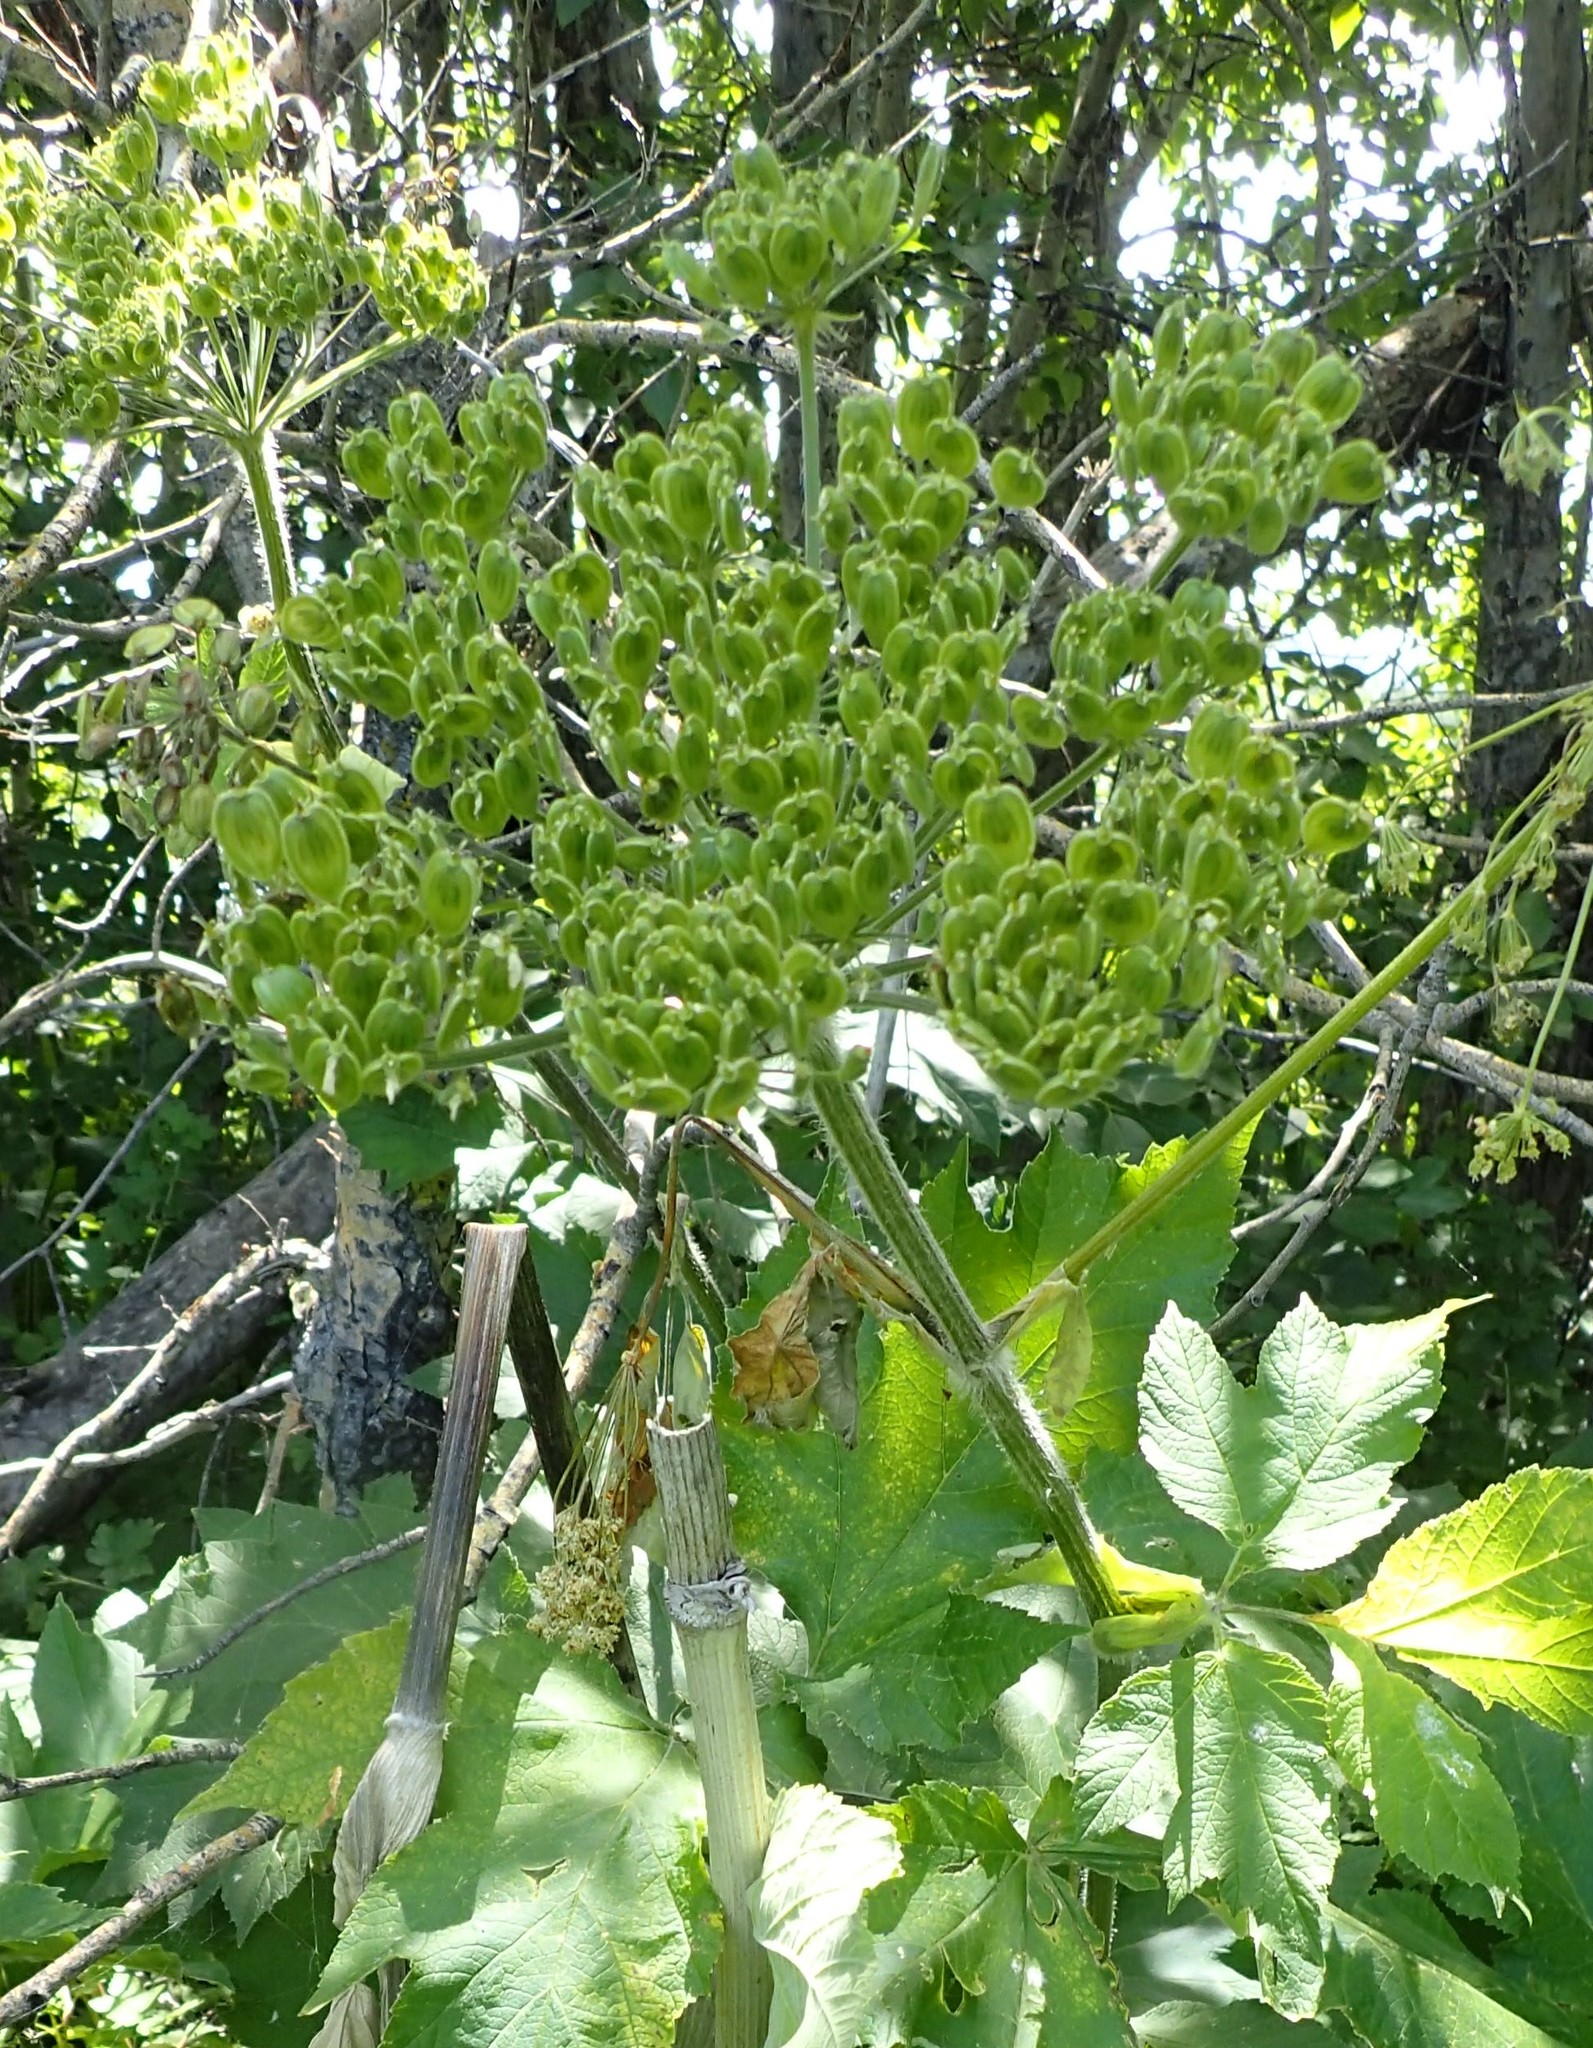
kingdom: Plantae
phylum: Tracheophyta
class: Magnoliopsida
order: Apiales
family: Apiaceae
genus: Heracleum
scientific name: Heracleum maximum
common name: American cow parsnip
